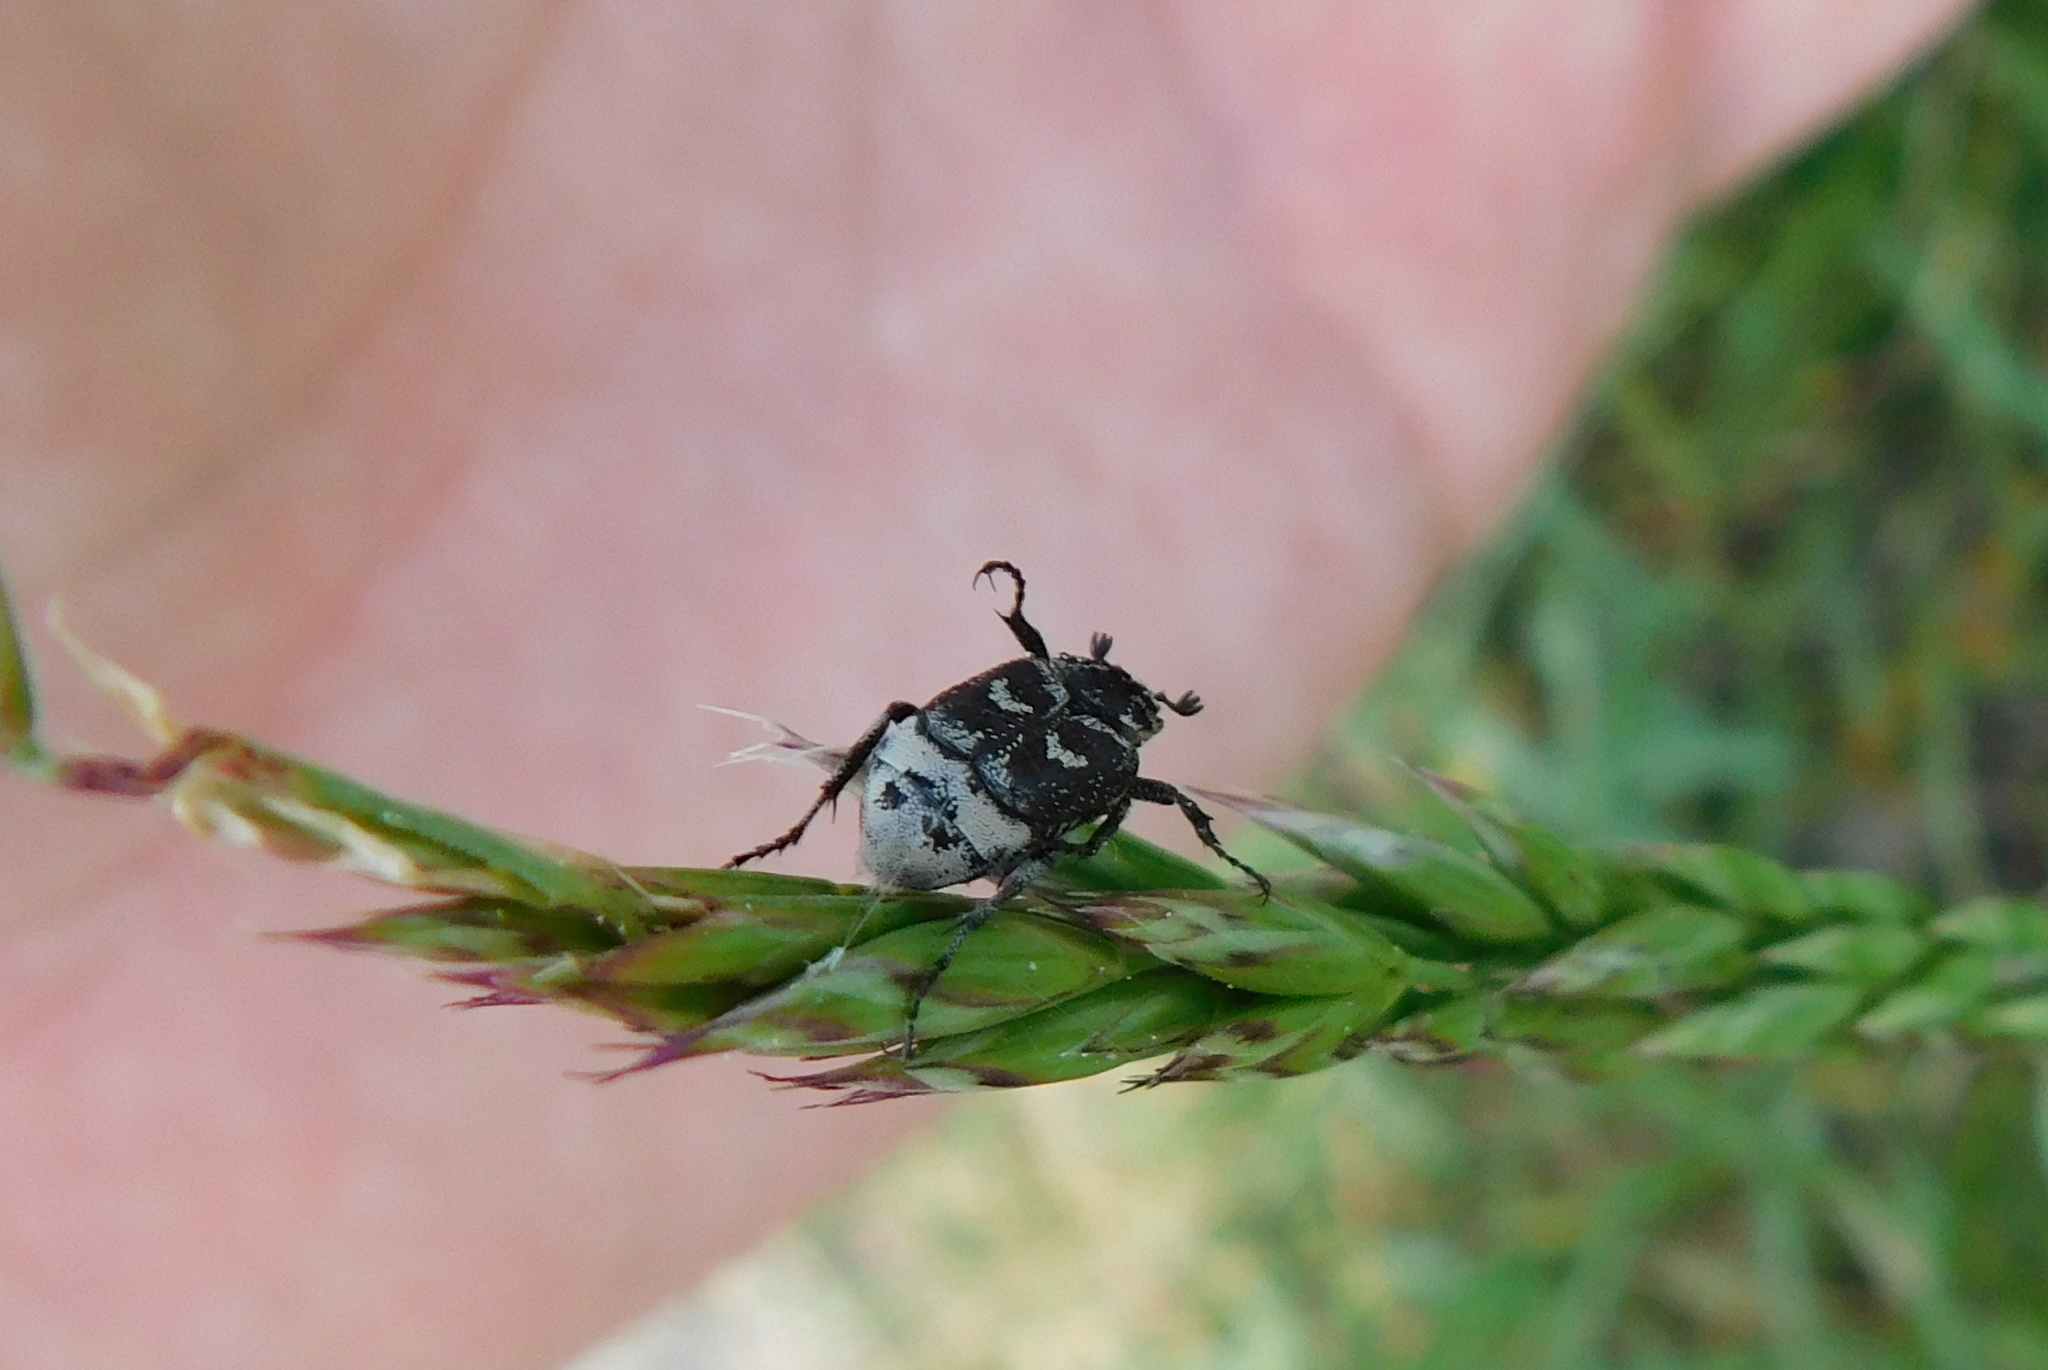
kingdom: Animalia
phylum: Arthropoda
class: Insecta
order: Coleoptera
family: Scarabaeidae
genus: Valgus
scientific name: Valgus hemipterus
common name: Bug flower chafer
